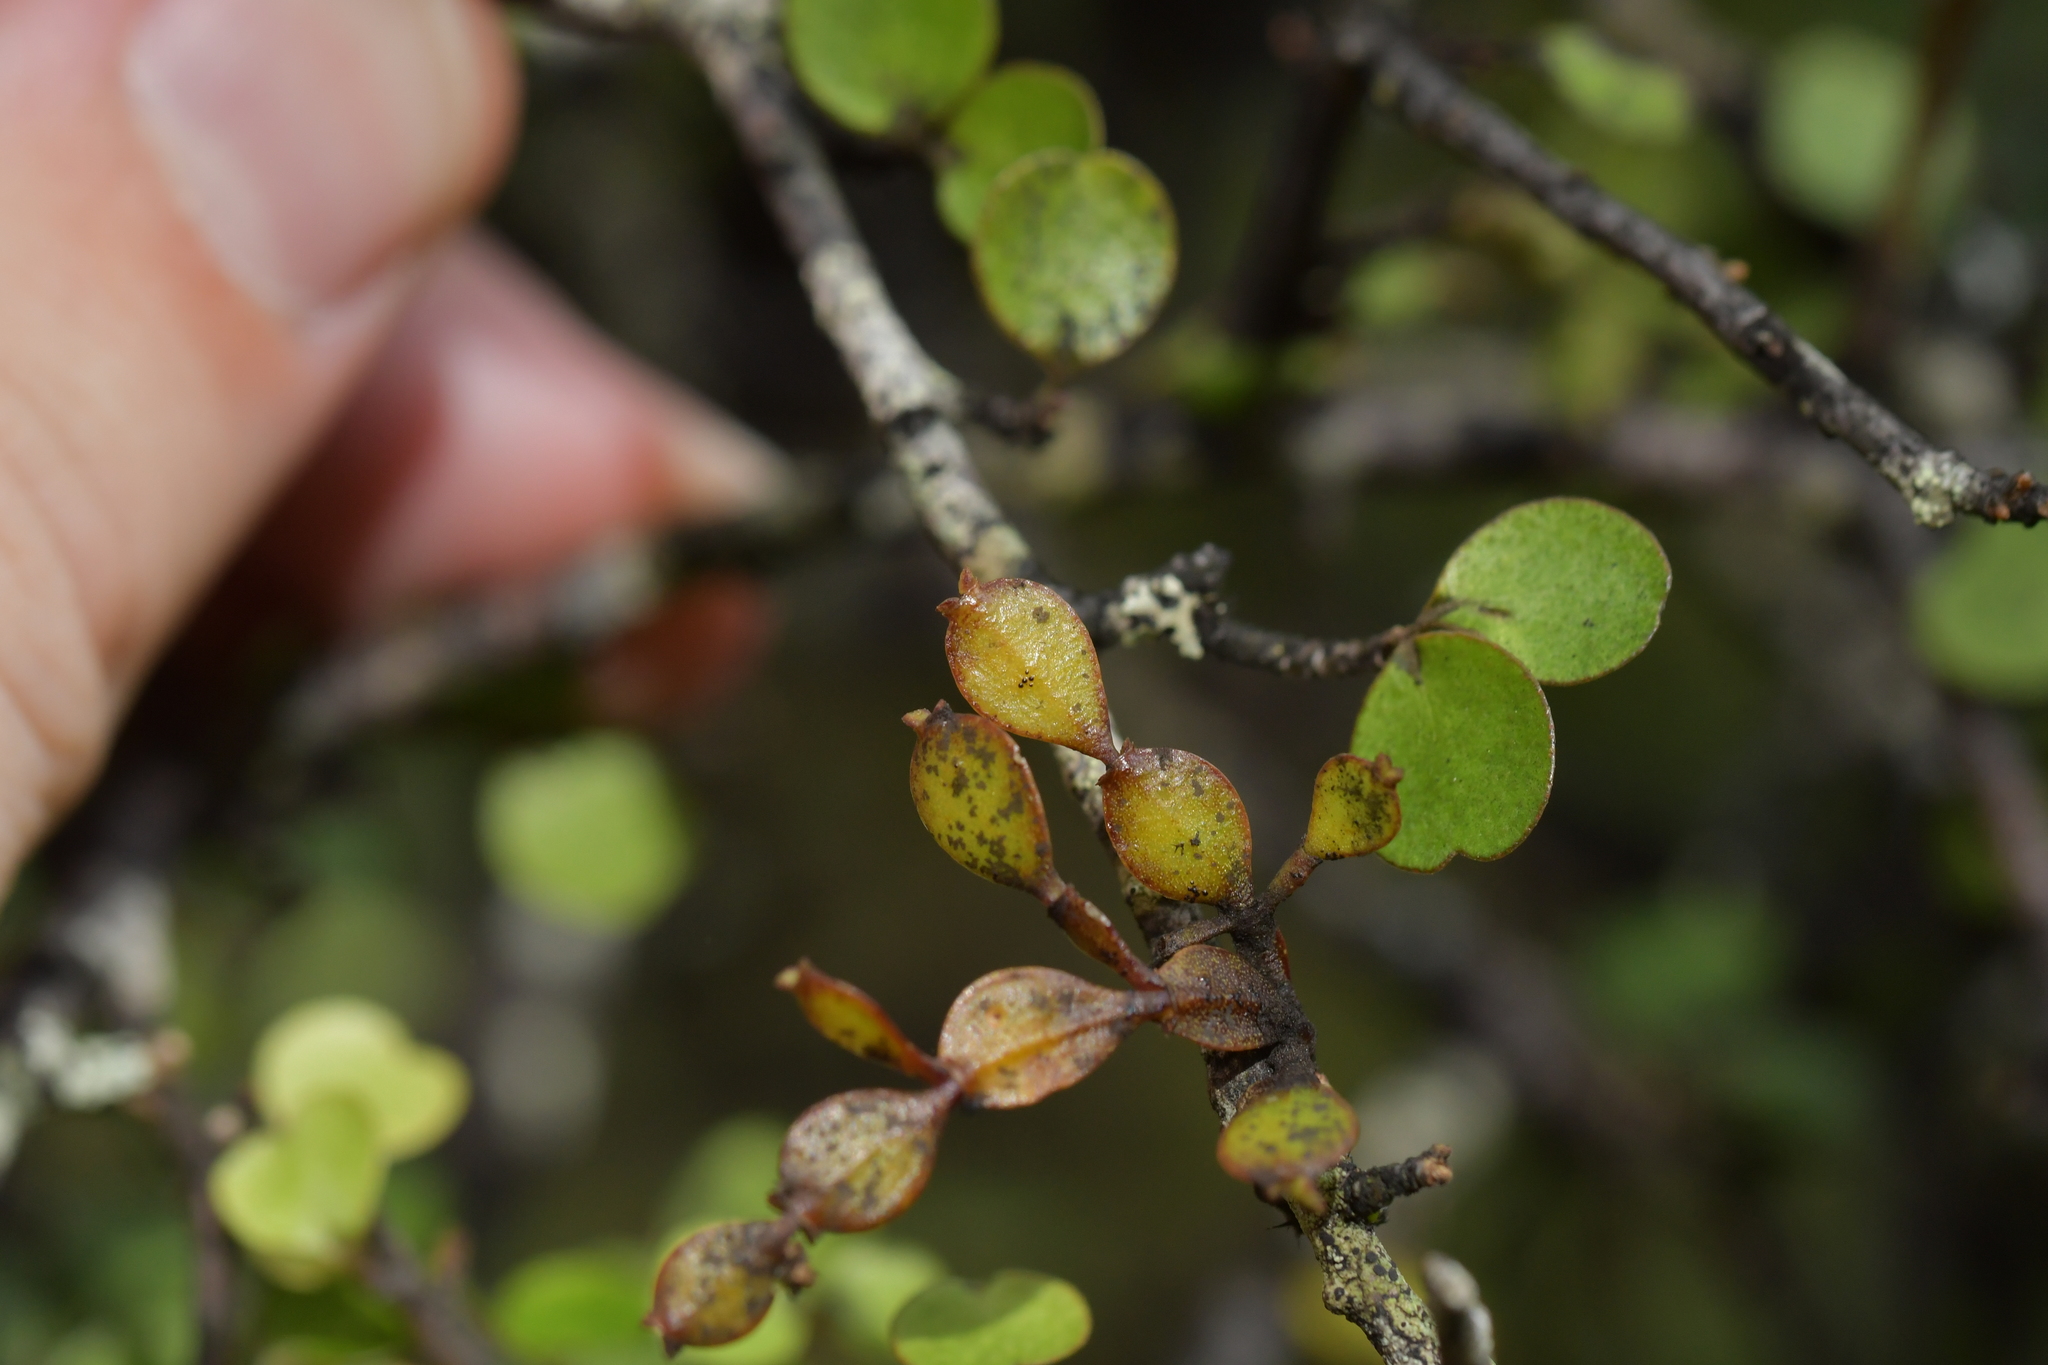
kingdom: Plantae
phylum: Tracheophyta
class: Magnoliopsida
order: Santalales
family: Viscaceae
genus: Korthalsella
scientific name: Korthalsella lindsayi
